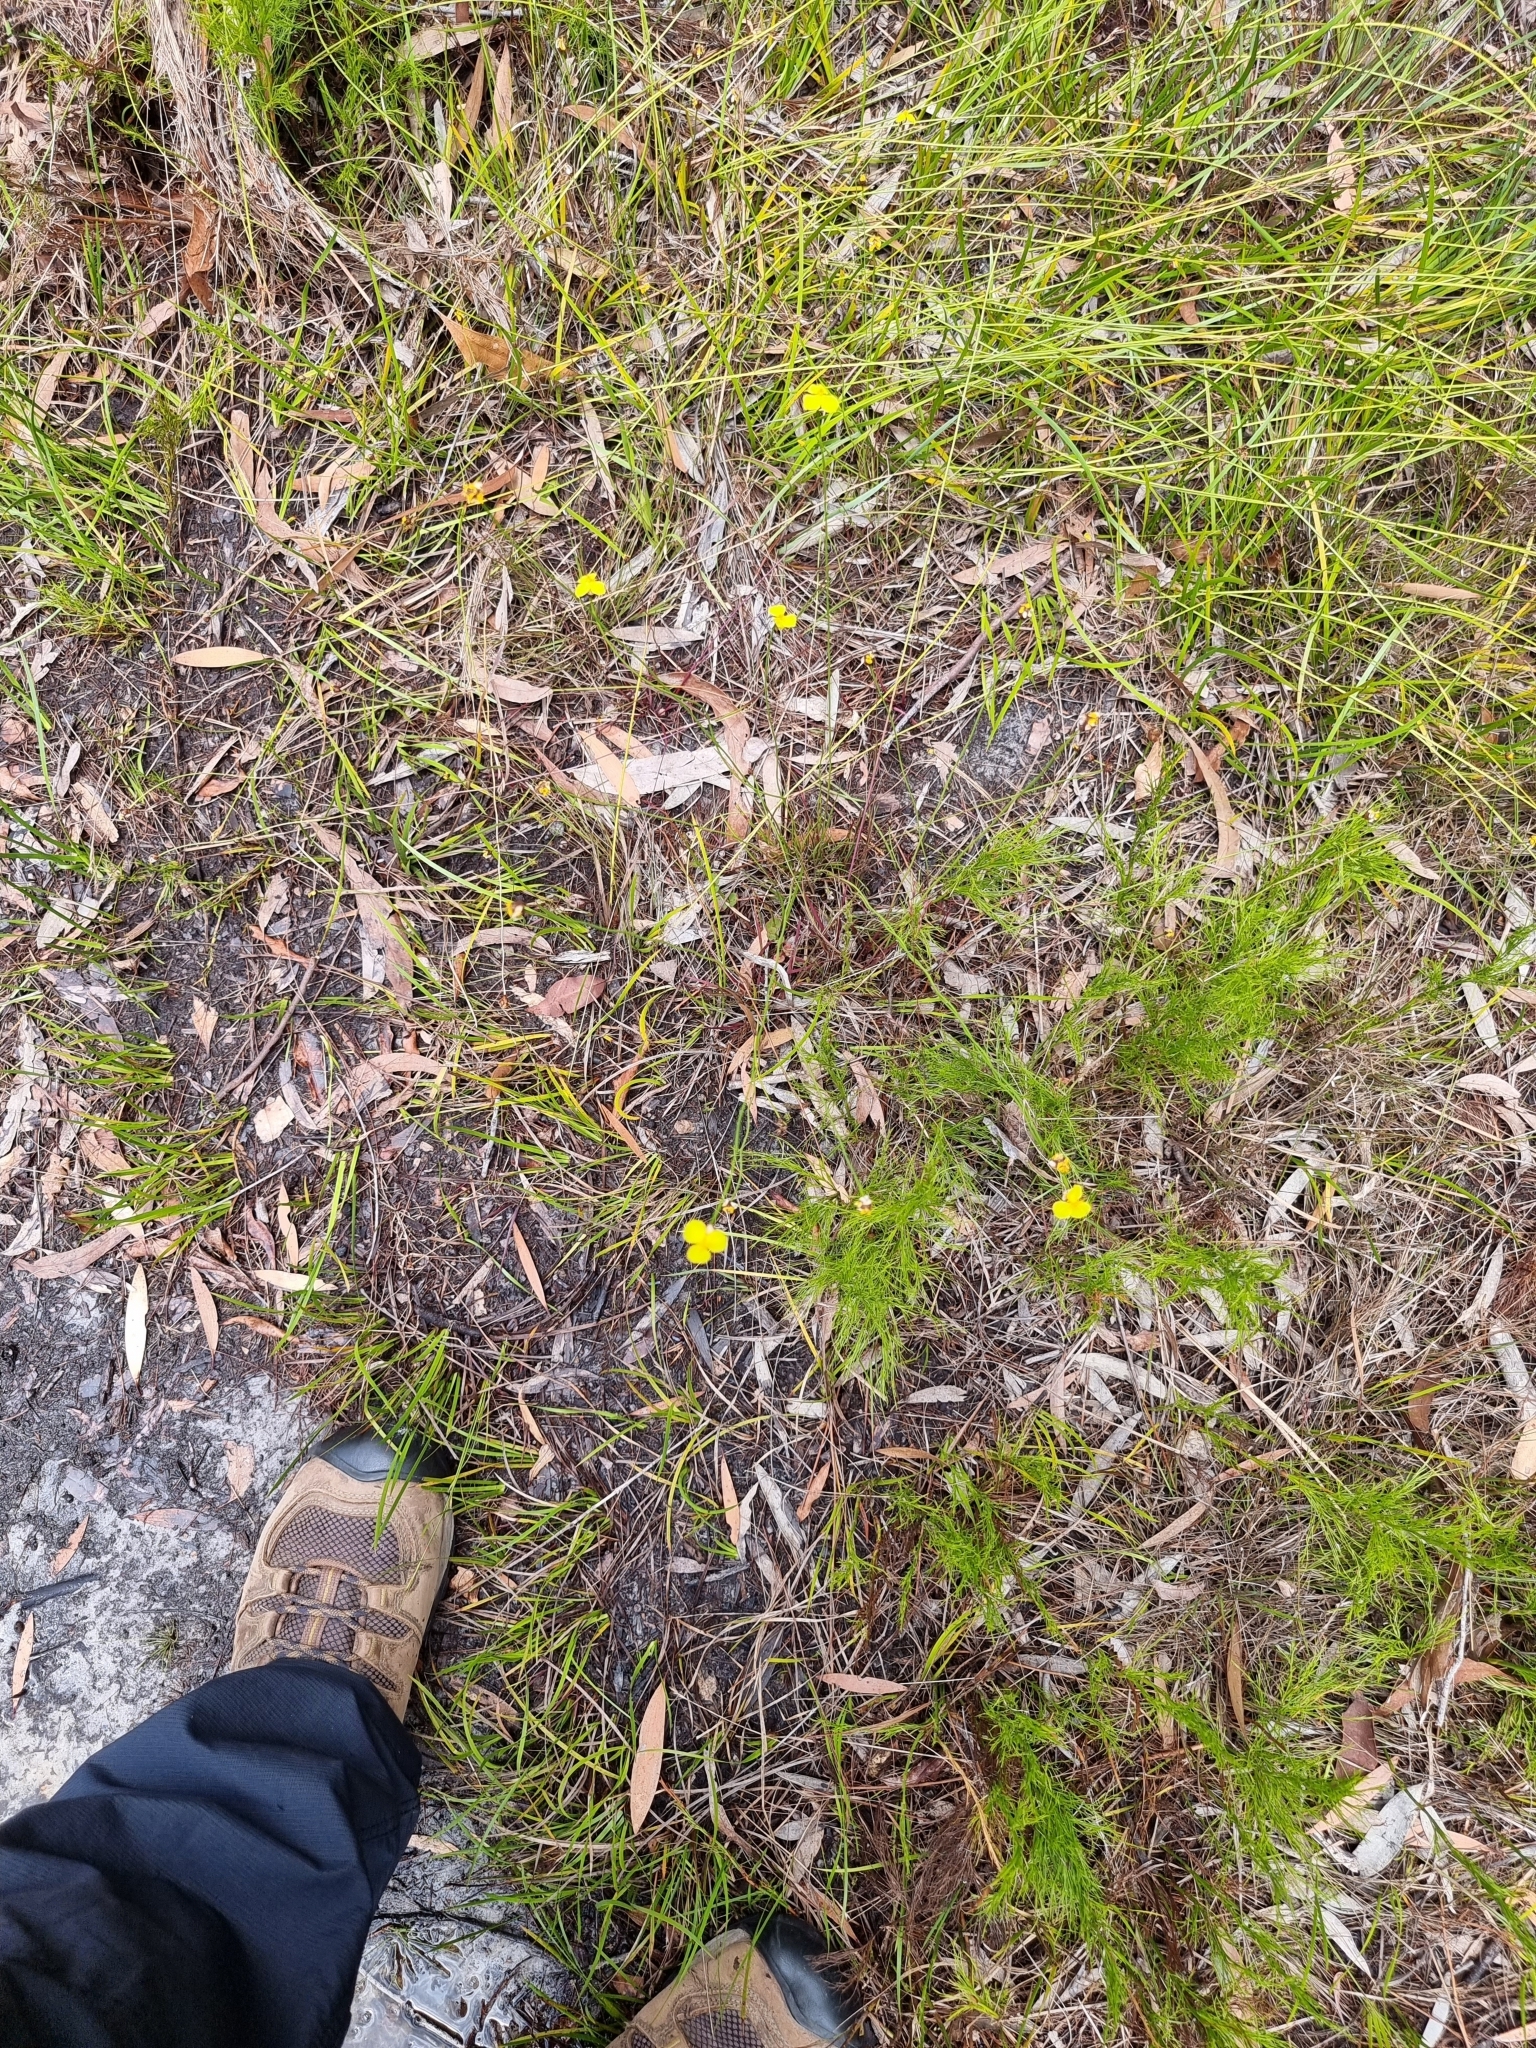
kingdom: Plantae
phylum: Tracheophyta
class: Liliopsida
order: Poales
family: Xyridaceae
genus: Xyris
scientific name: Xyris juncea
